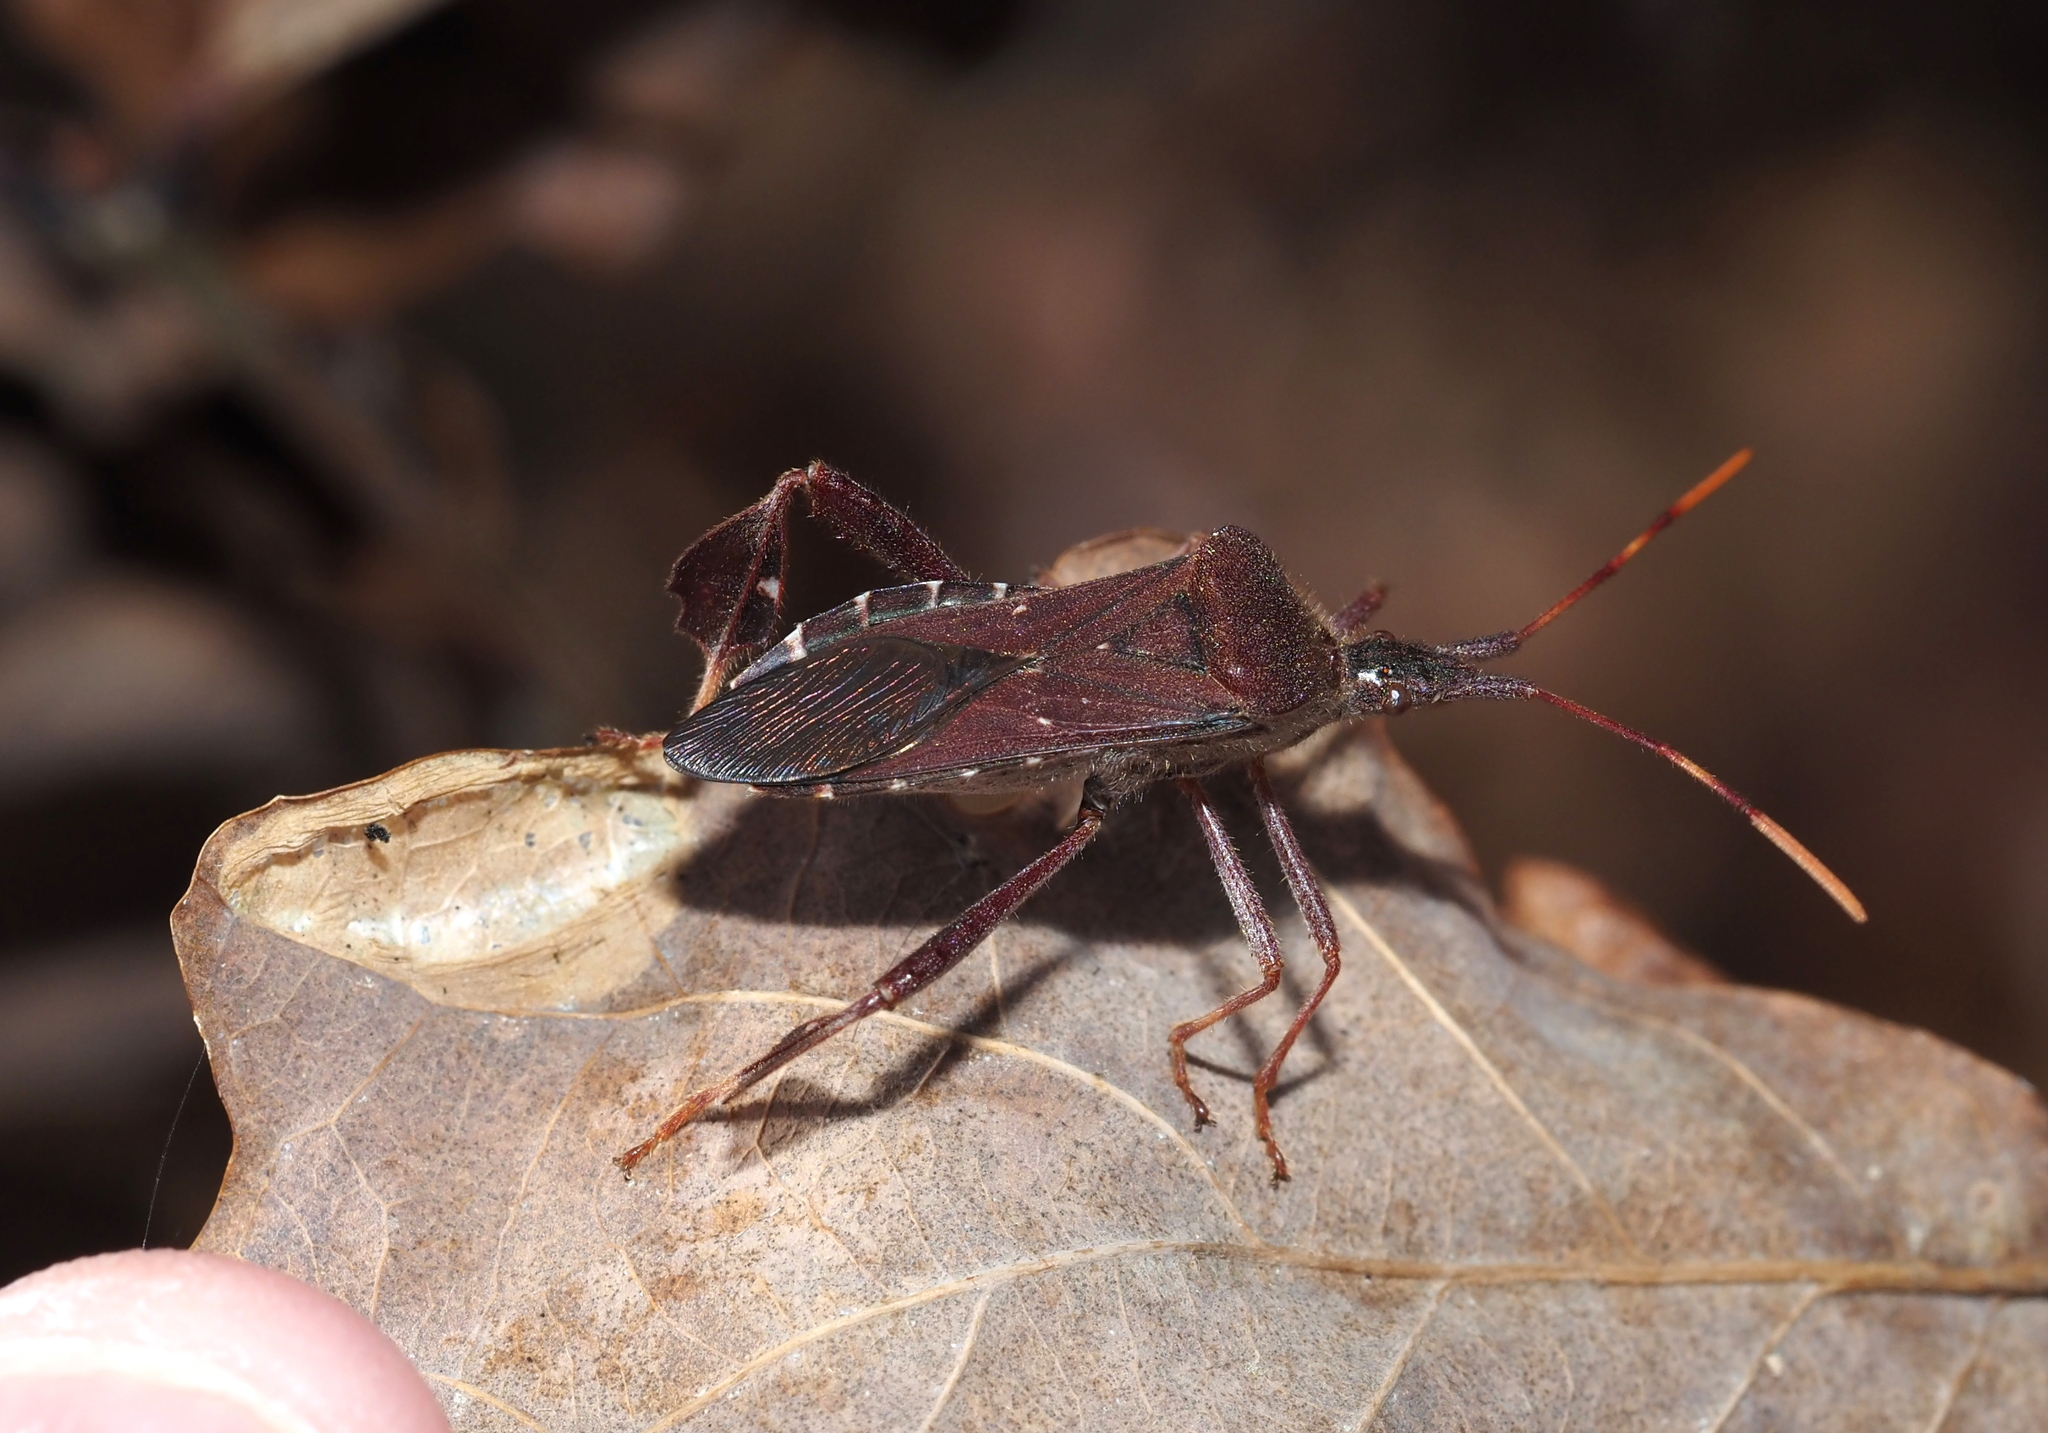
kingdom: Animalia
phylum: Arthropoda
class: Insecta
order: Hemiptera
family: Coreidae
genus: Leptoglossus
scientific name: Leptoglossus oppositus
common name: Northern leaf-footed bug
